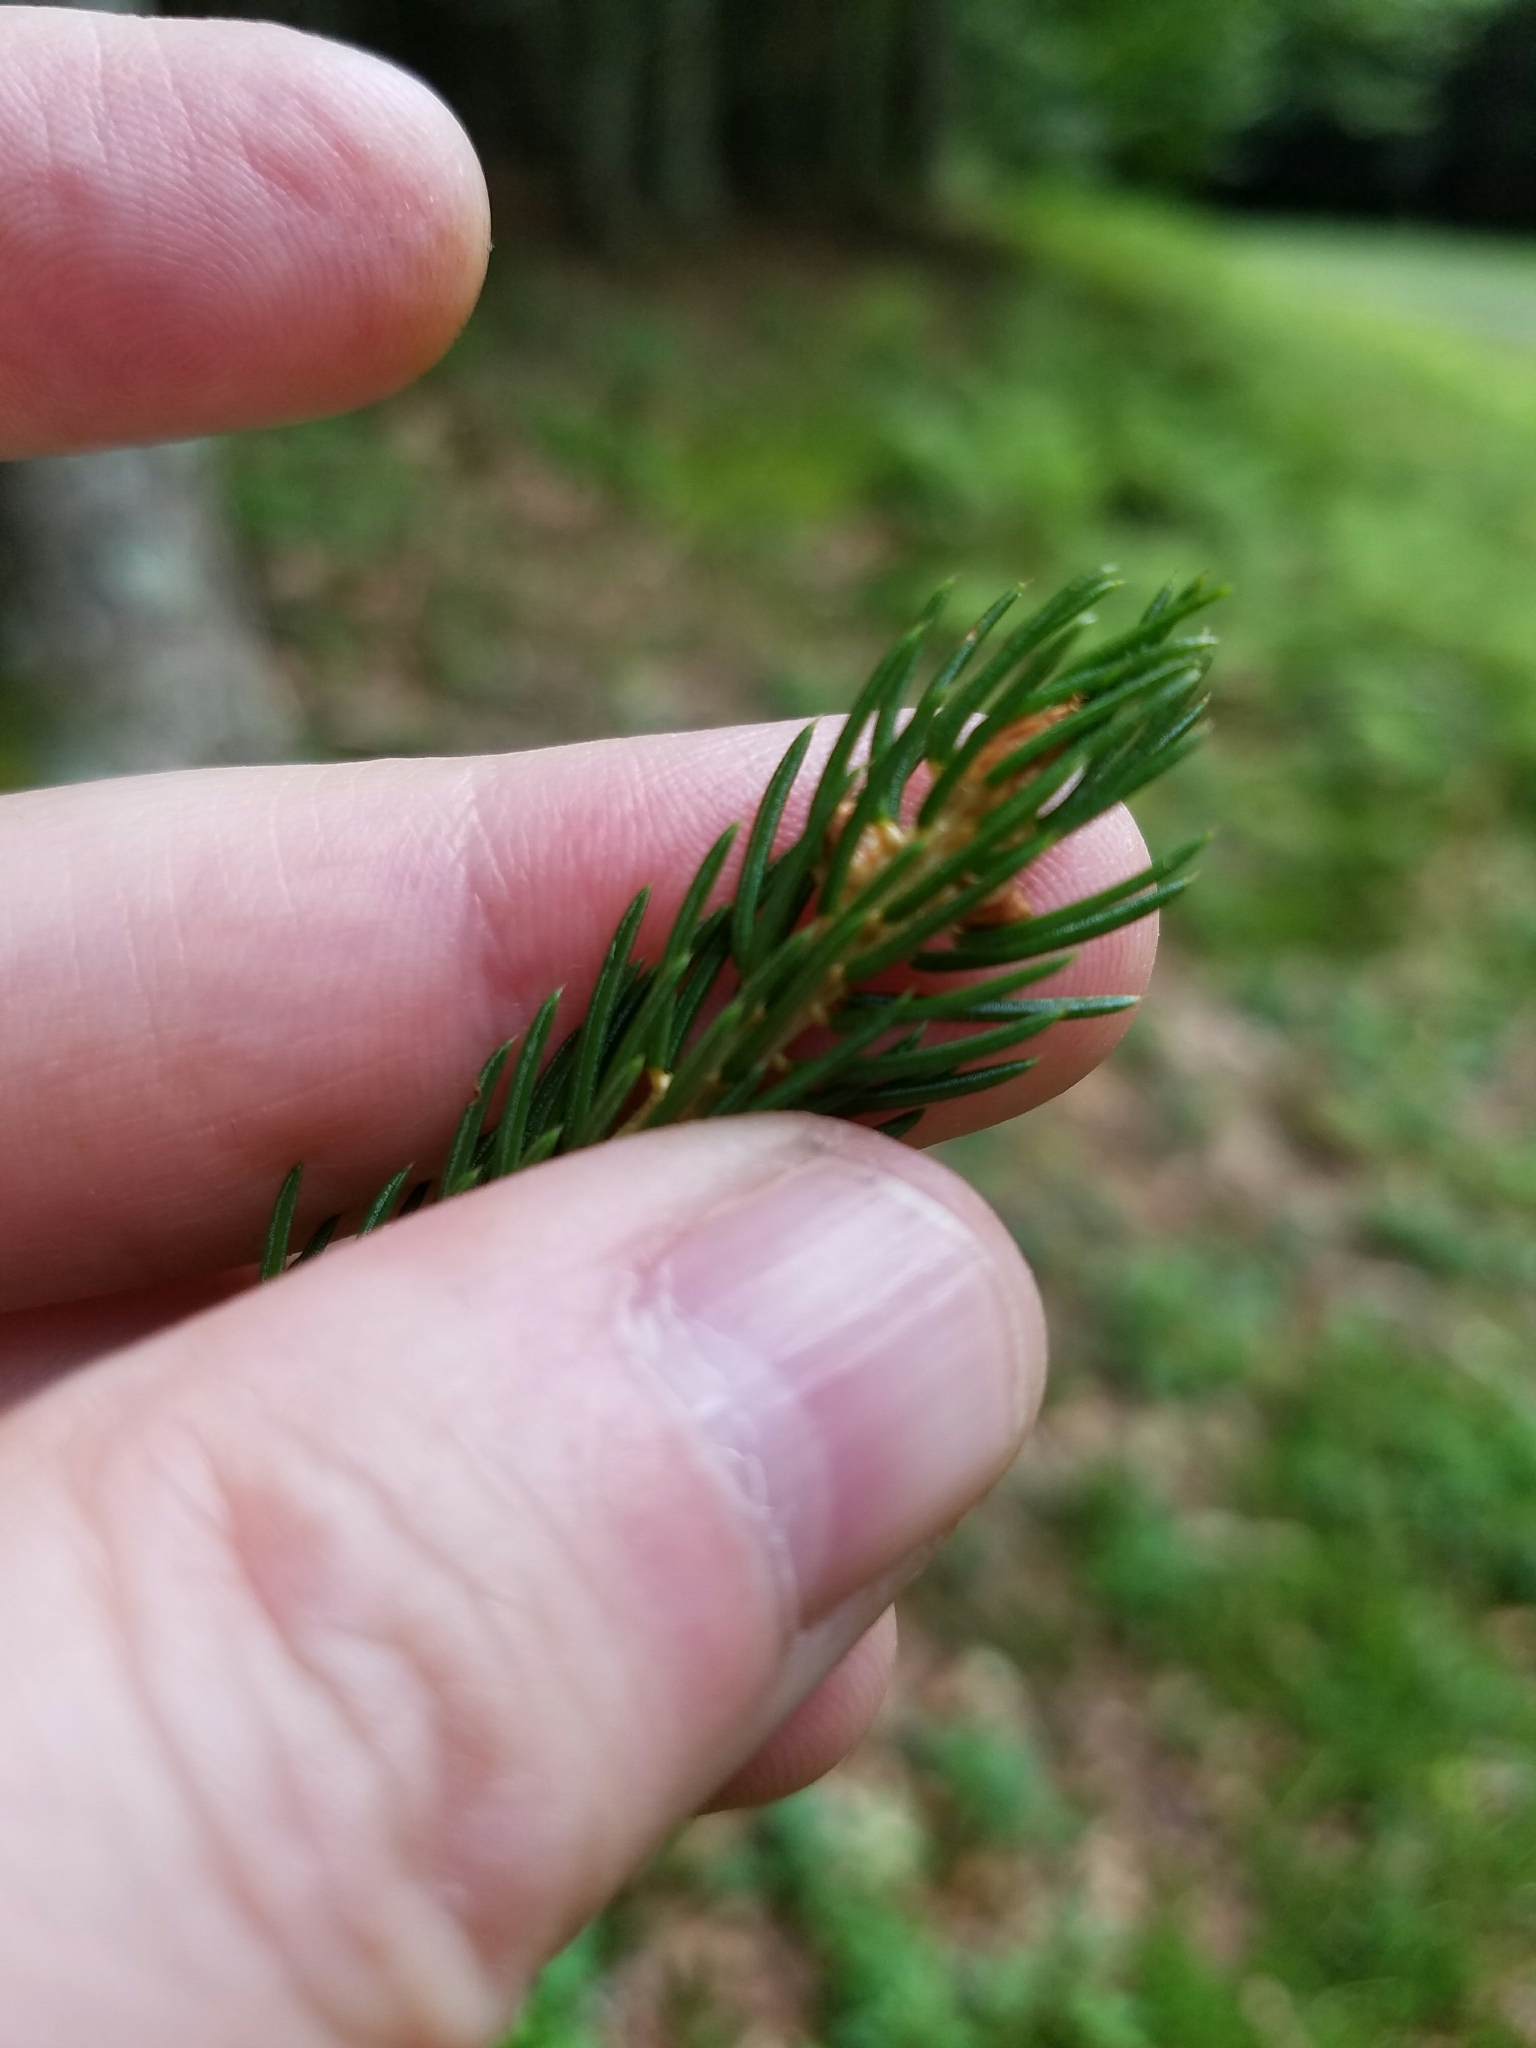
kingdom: Plantae
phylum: Tracheophyta
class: Pinopsida
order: Pinales
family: Pinaceae
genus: Picea
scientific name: Picea rubens
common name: Red spruce
